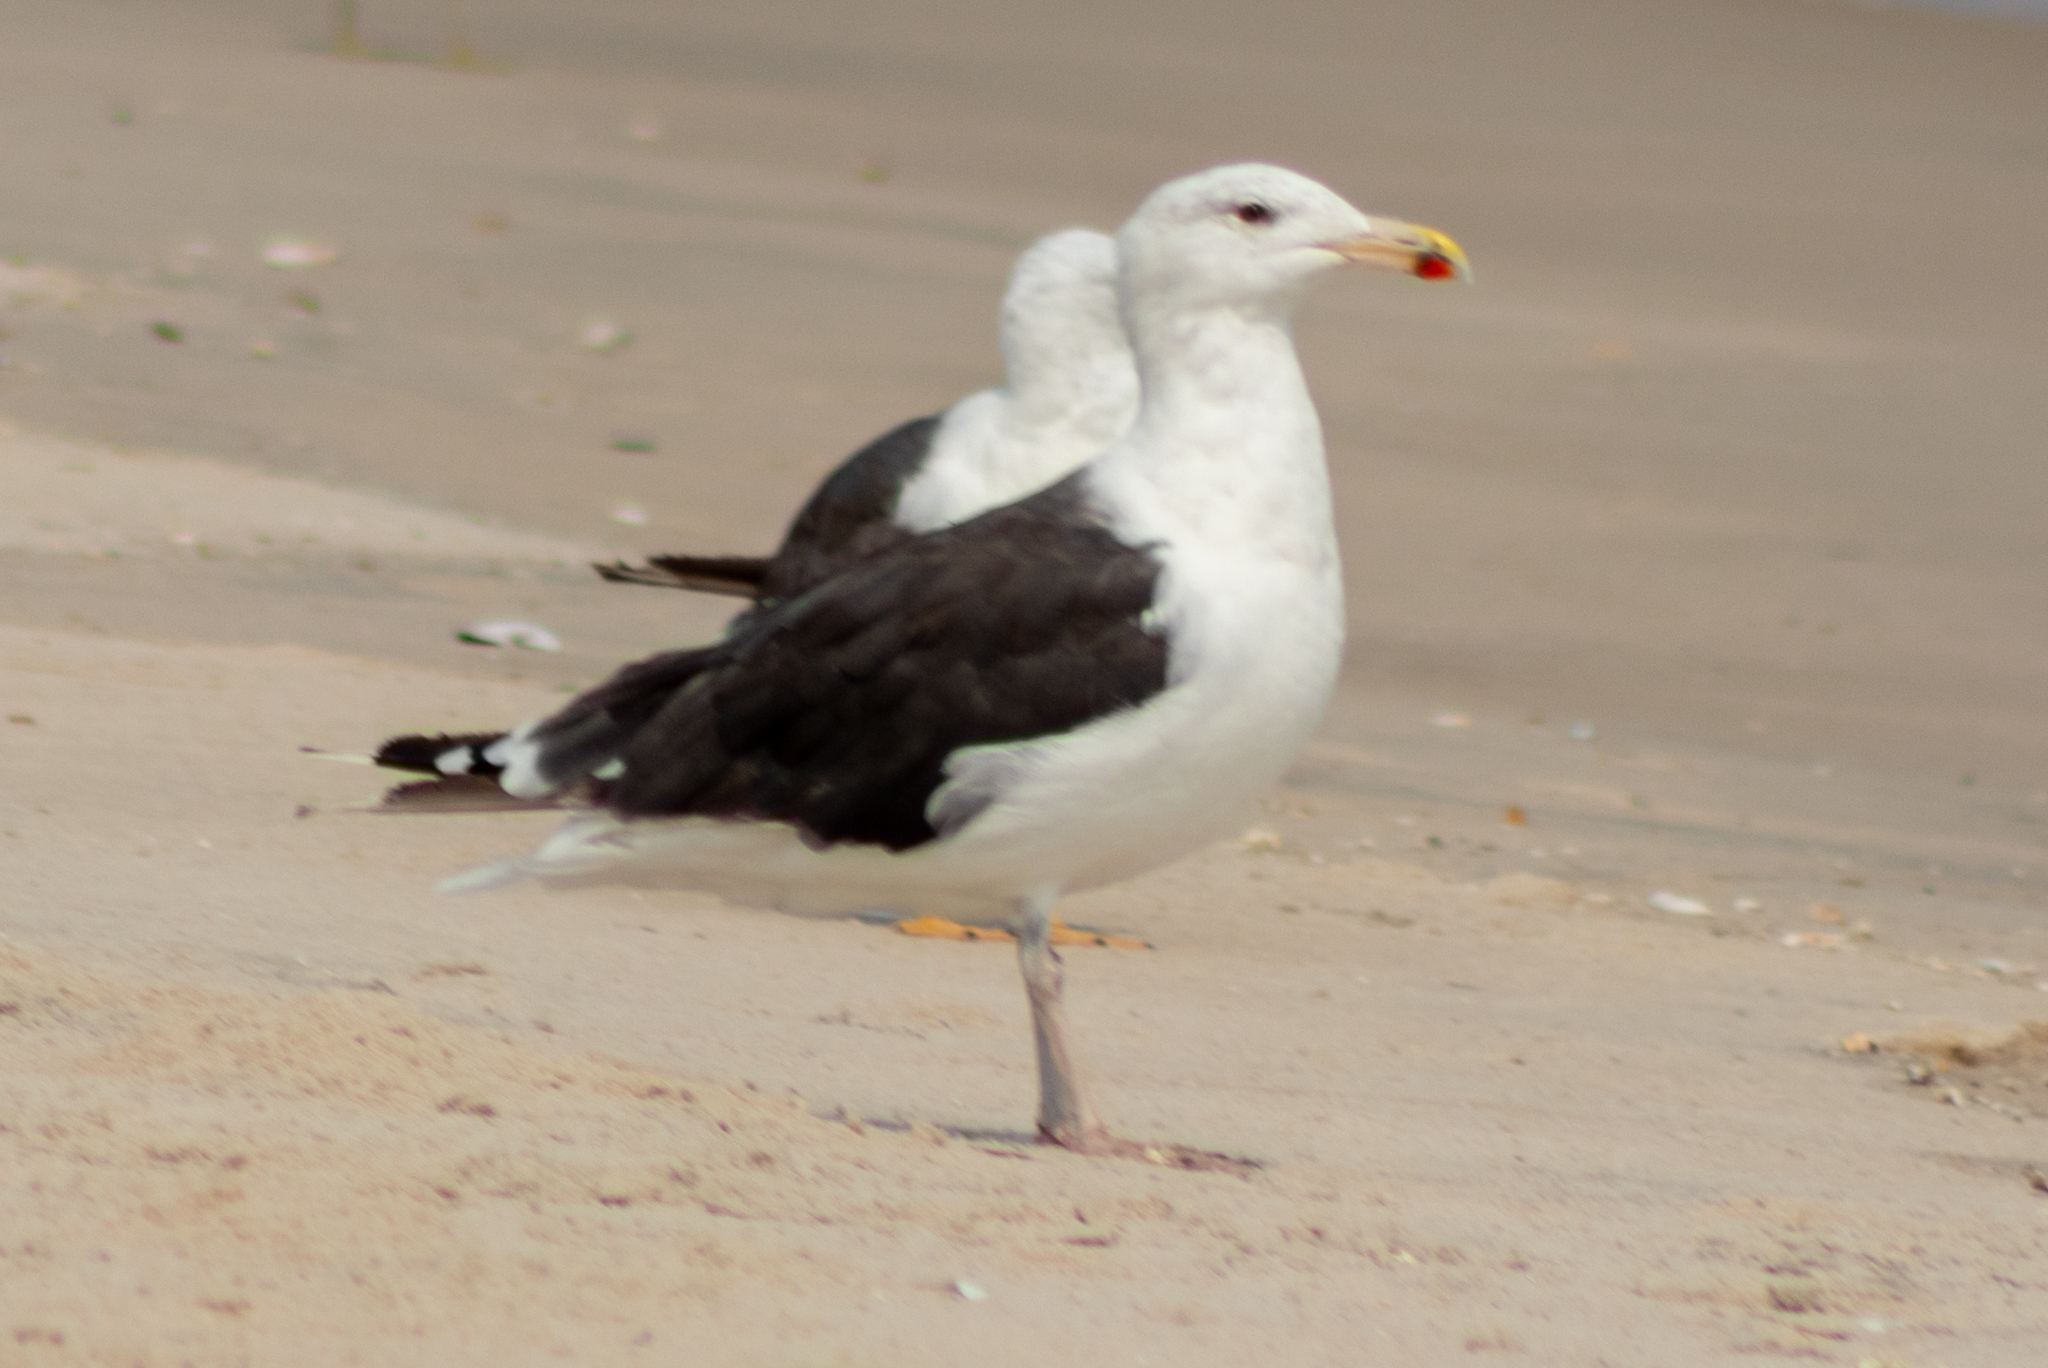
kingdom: Animalia
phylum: Chordata
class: Aves
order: Charadriiformes
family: Laridae
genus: Larus
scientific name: Larus marinus
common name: Great black-backed gull
